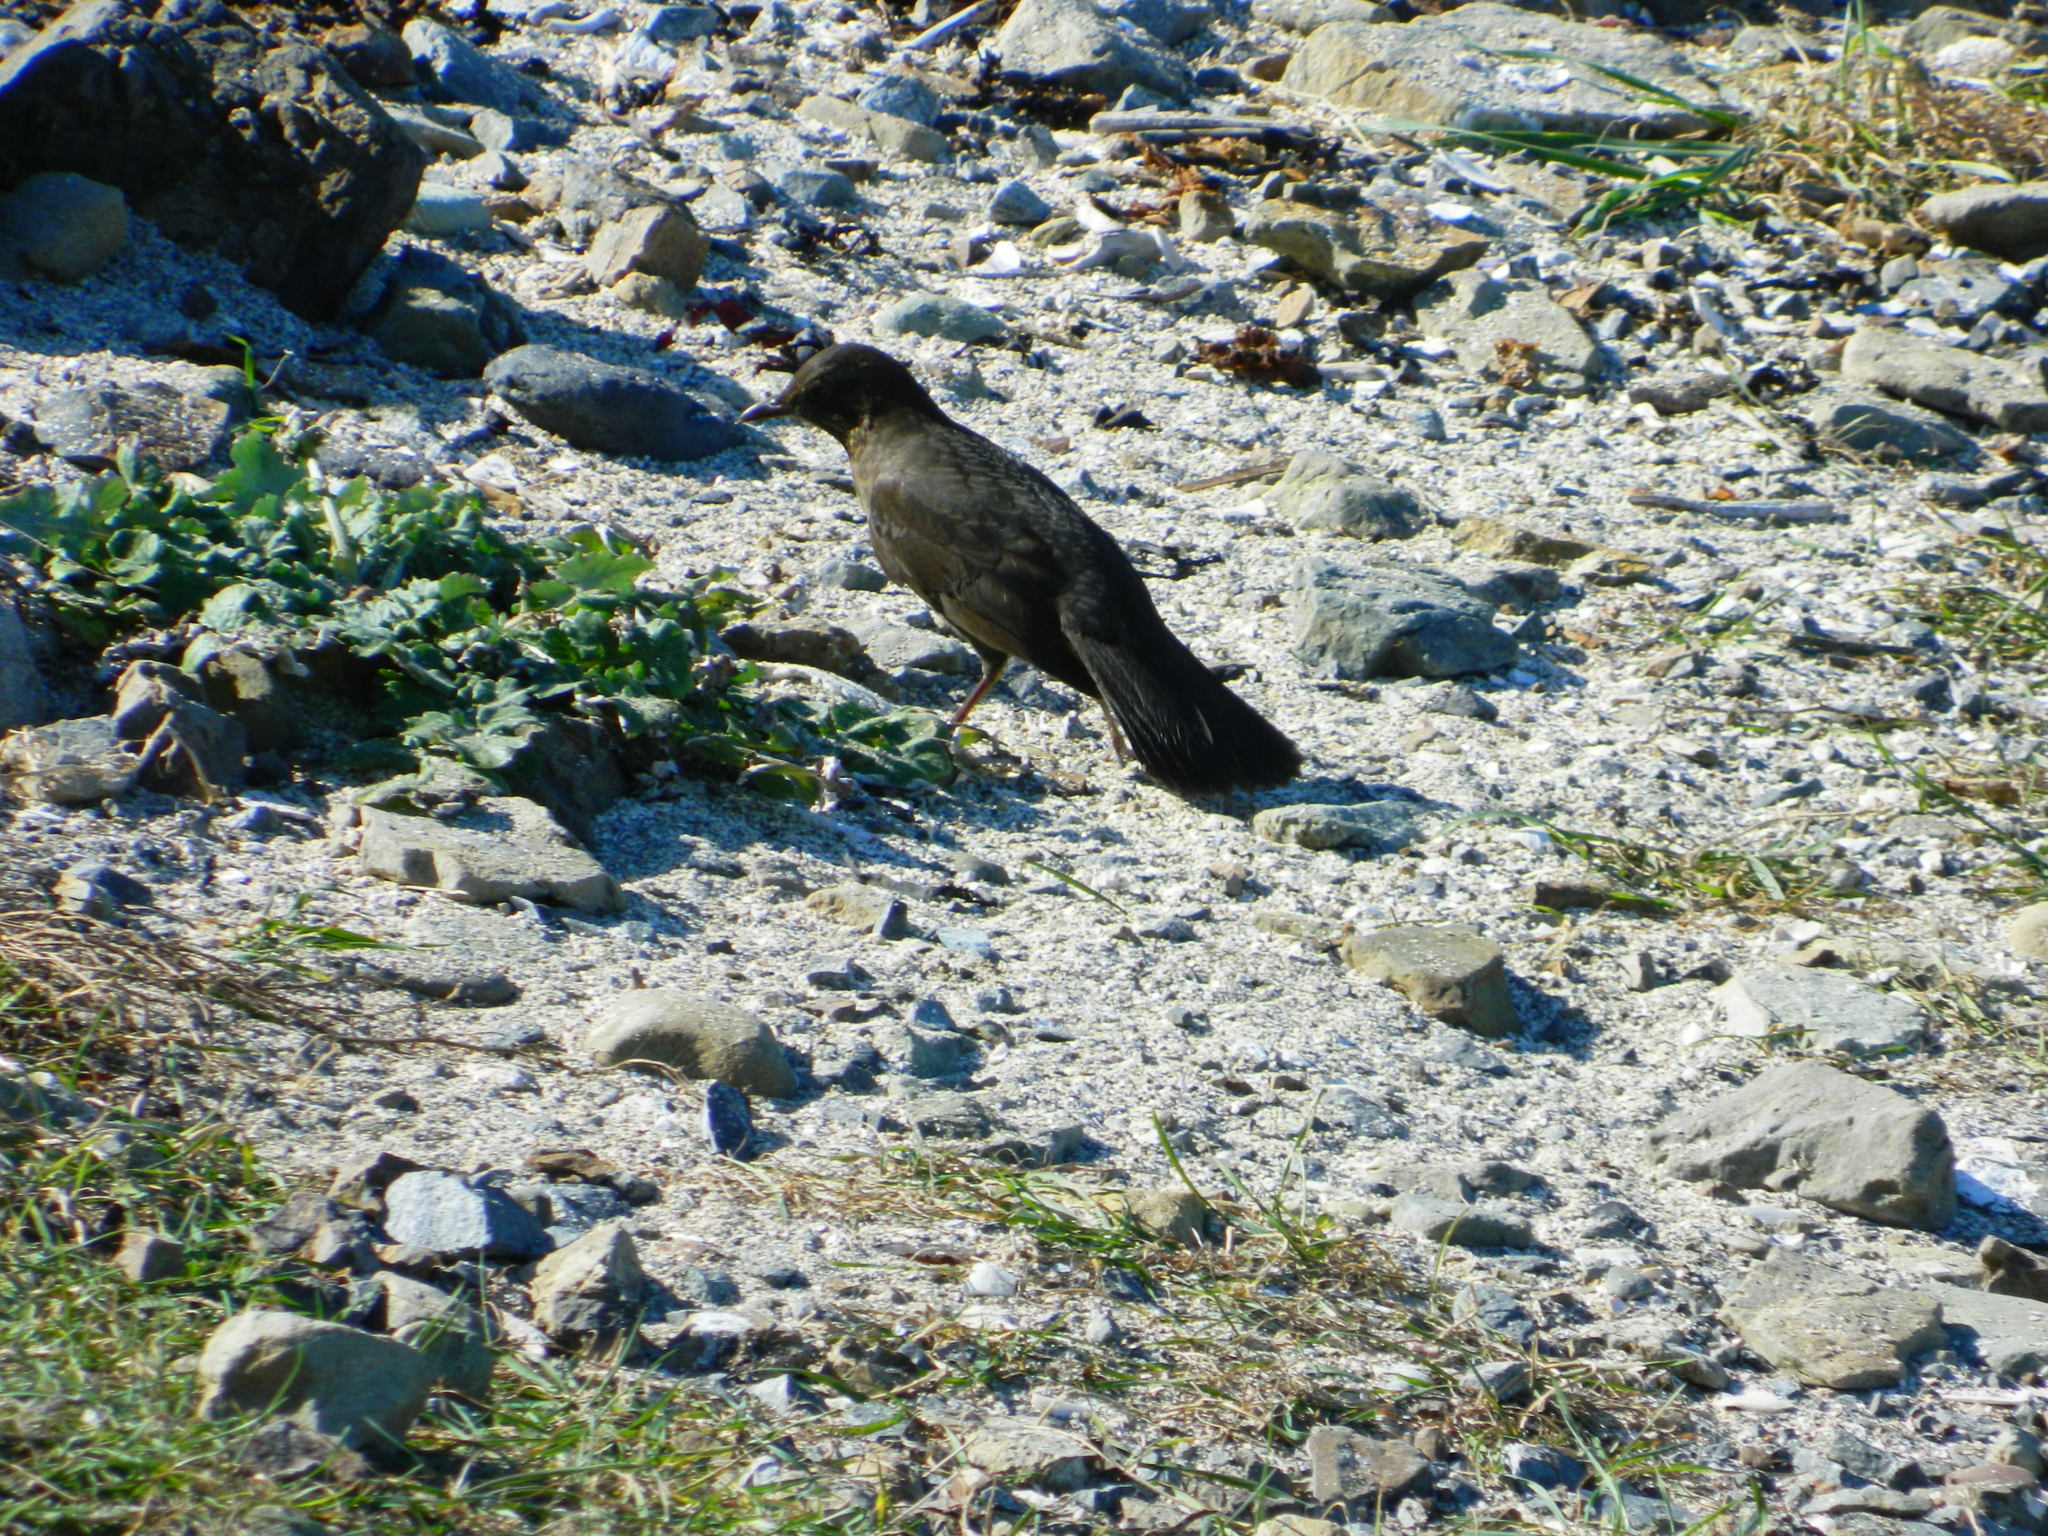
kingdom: Animalia
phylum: Chordata
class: Aves
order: Passeriformes
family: Turdidae
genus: Turdus
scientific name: Turdus merula
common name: Common blackbird
